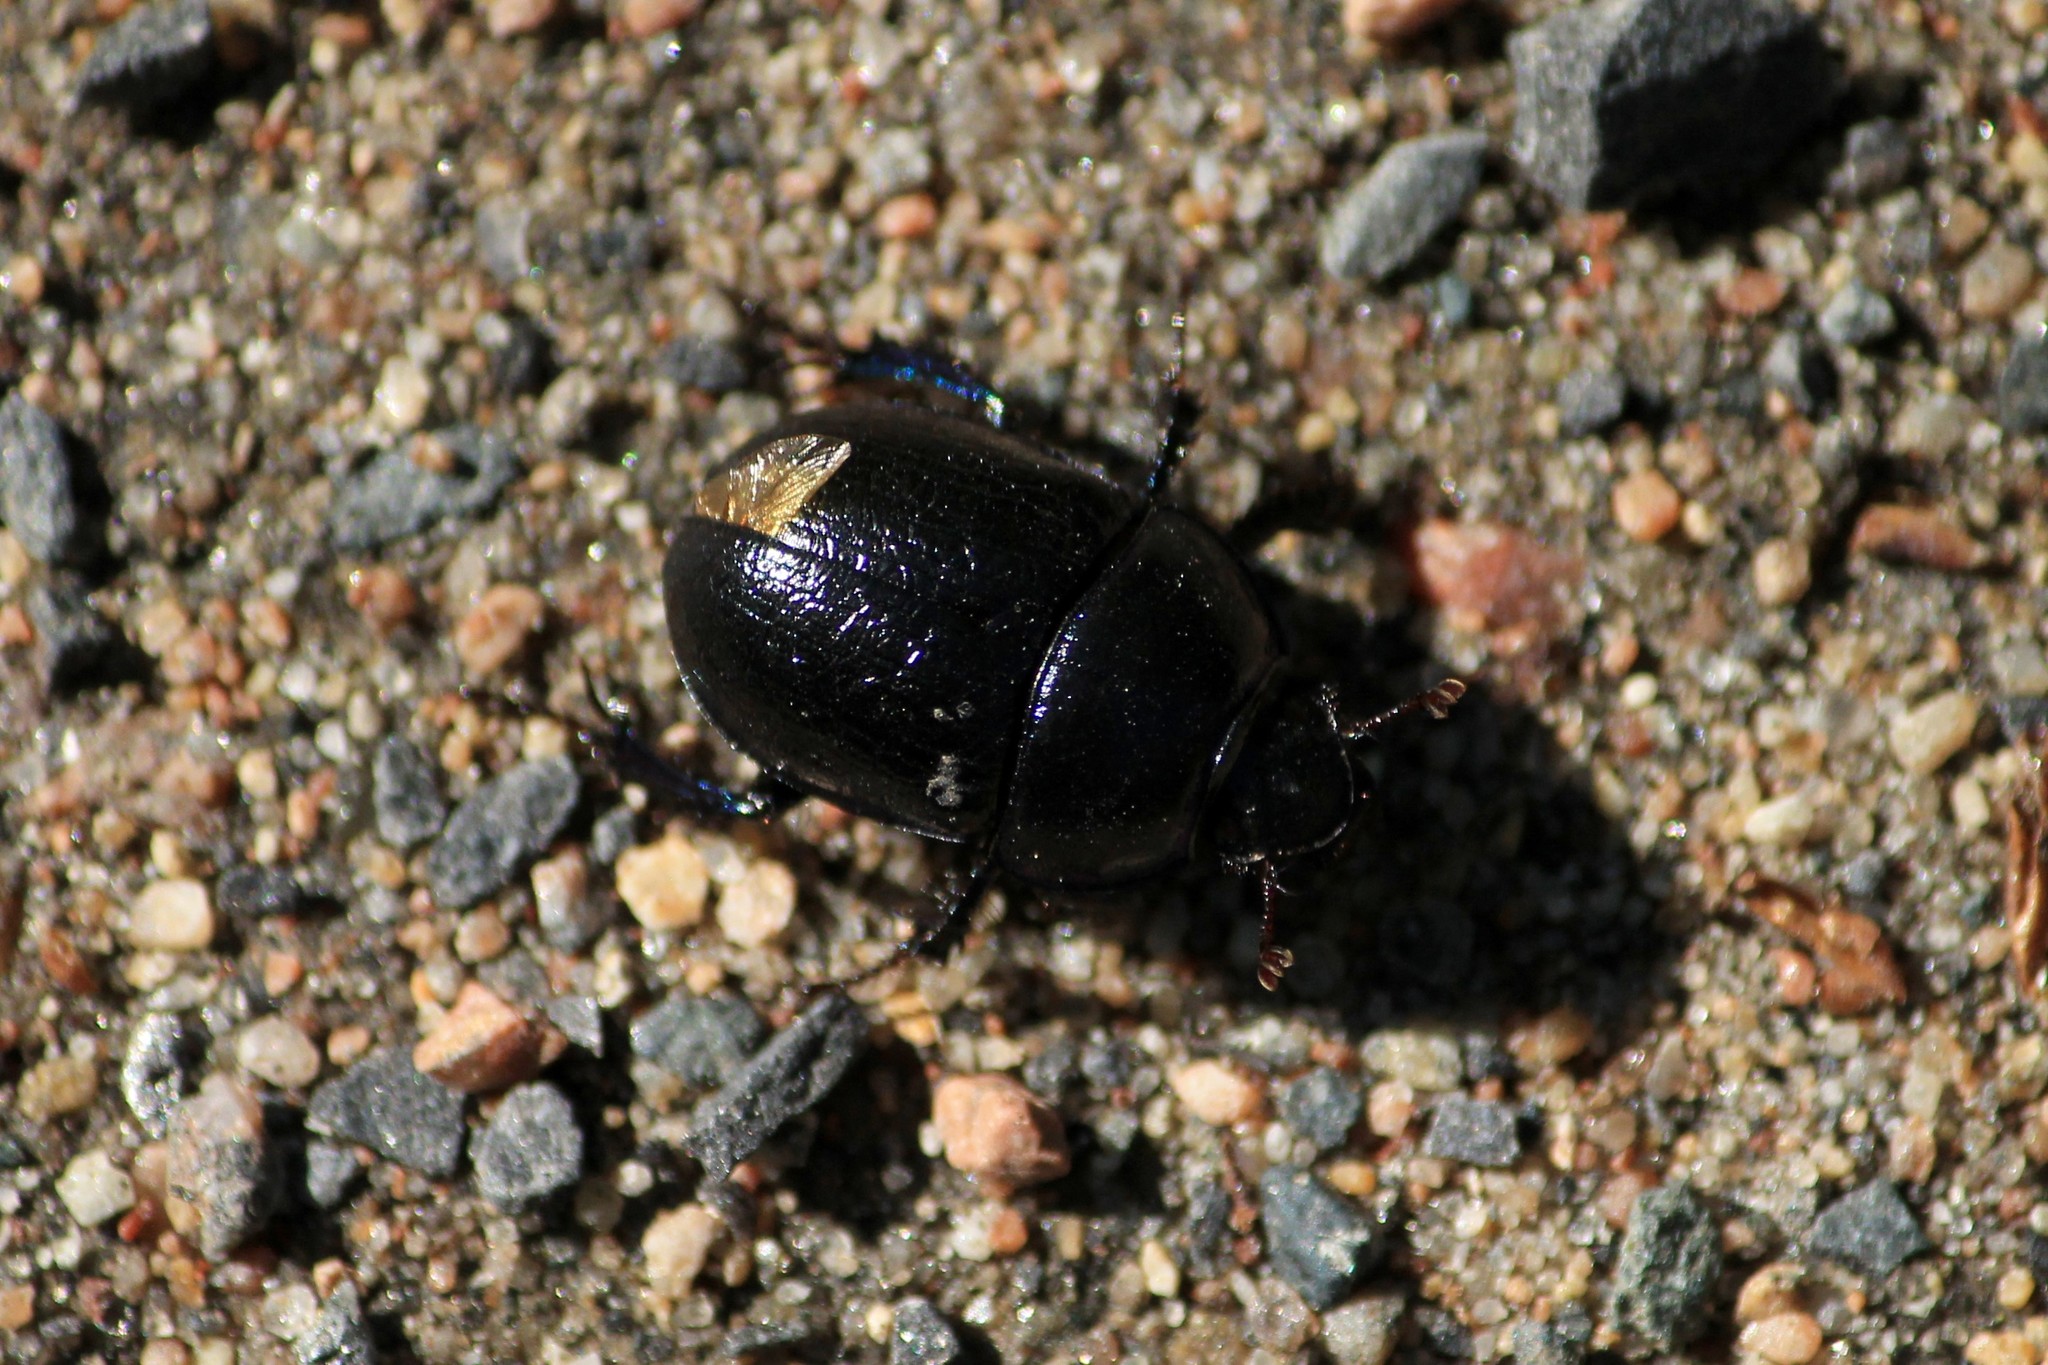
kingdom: Animalia
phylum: Arthropoda
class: Insecta
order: Coleoptera
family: Geotrupidae
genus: Anoplotrupes
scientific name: Anoplotrupes stercorosus
